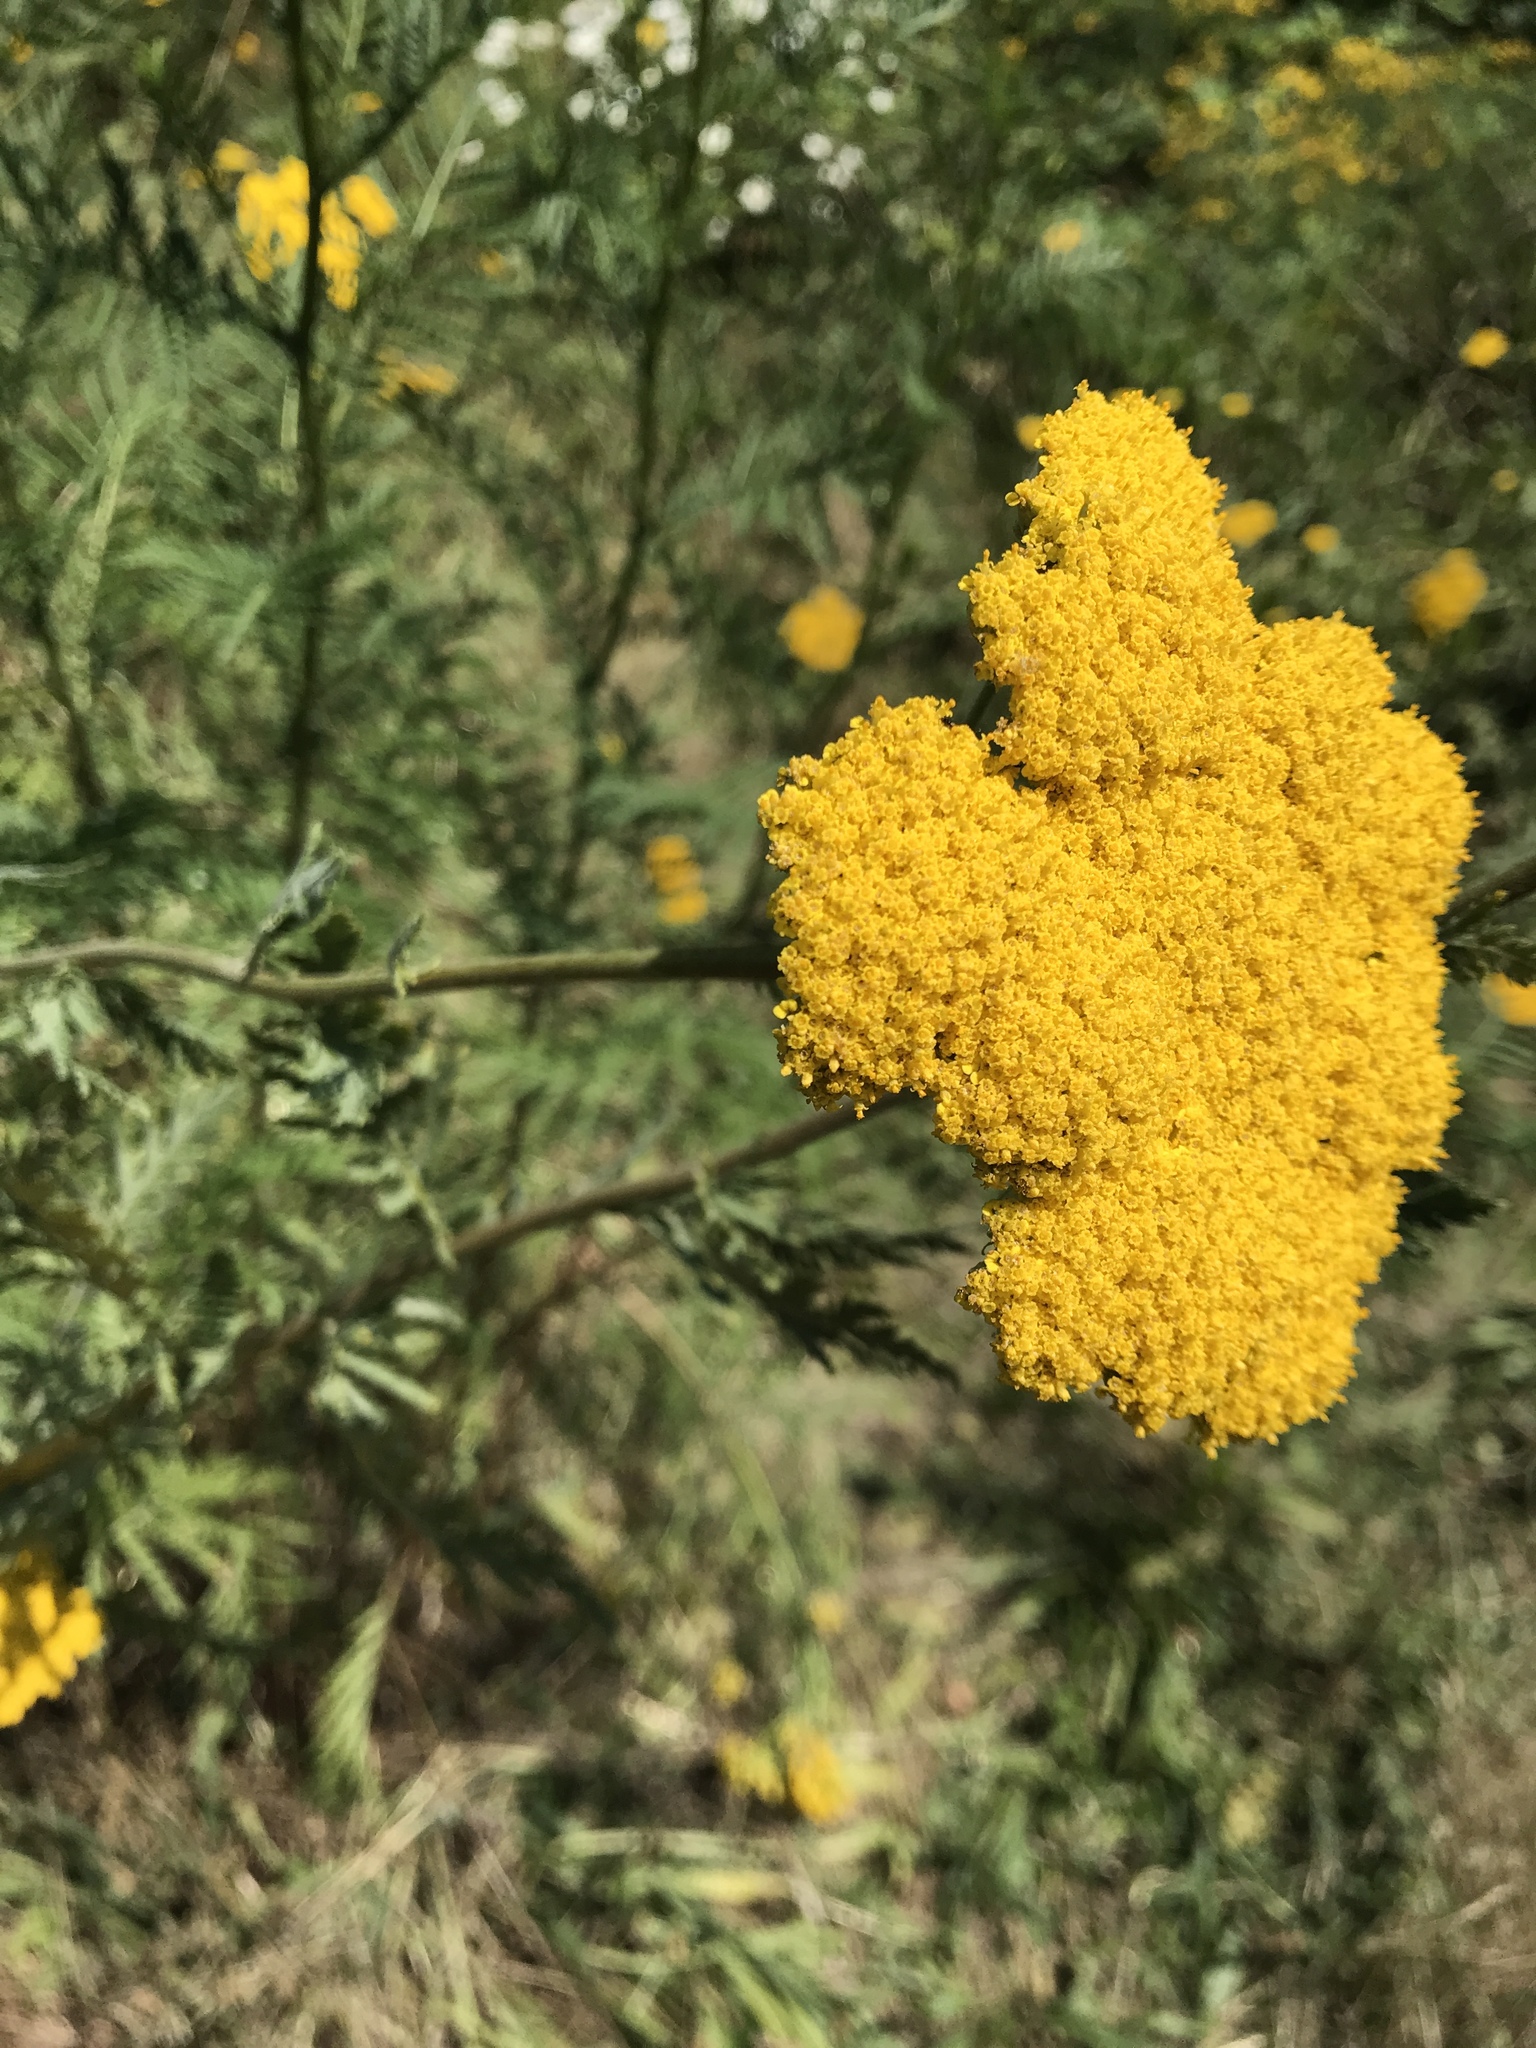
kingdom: Plantae
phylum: Tracheophyta
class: Magnoliopsida
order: Asterales
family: Asteraceae
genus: Achillea
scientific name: Achillea filipendulina
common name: Fernleaf yarrow
